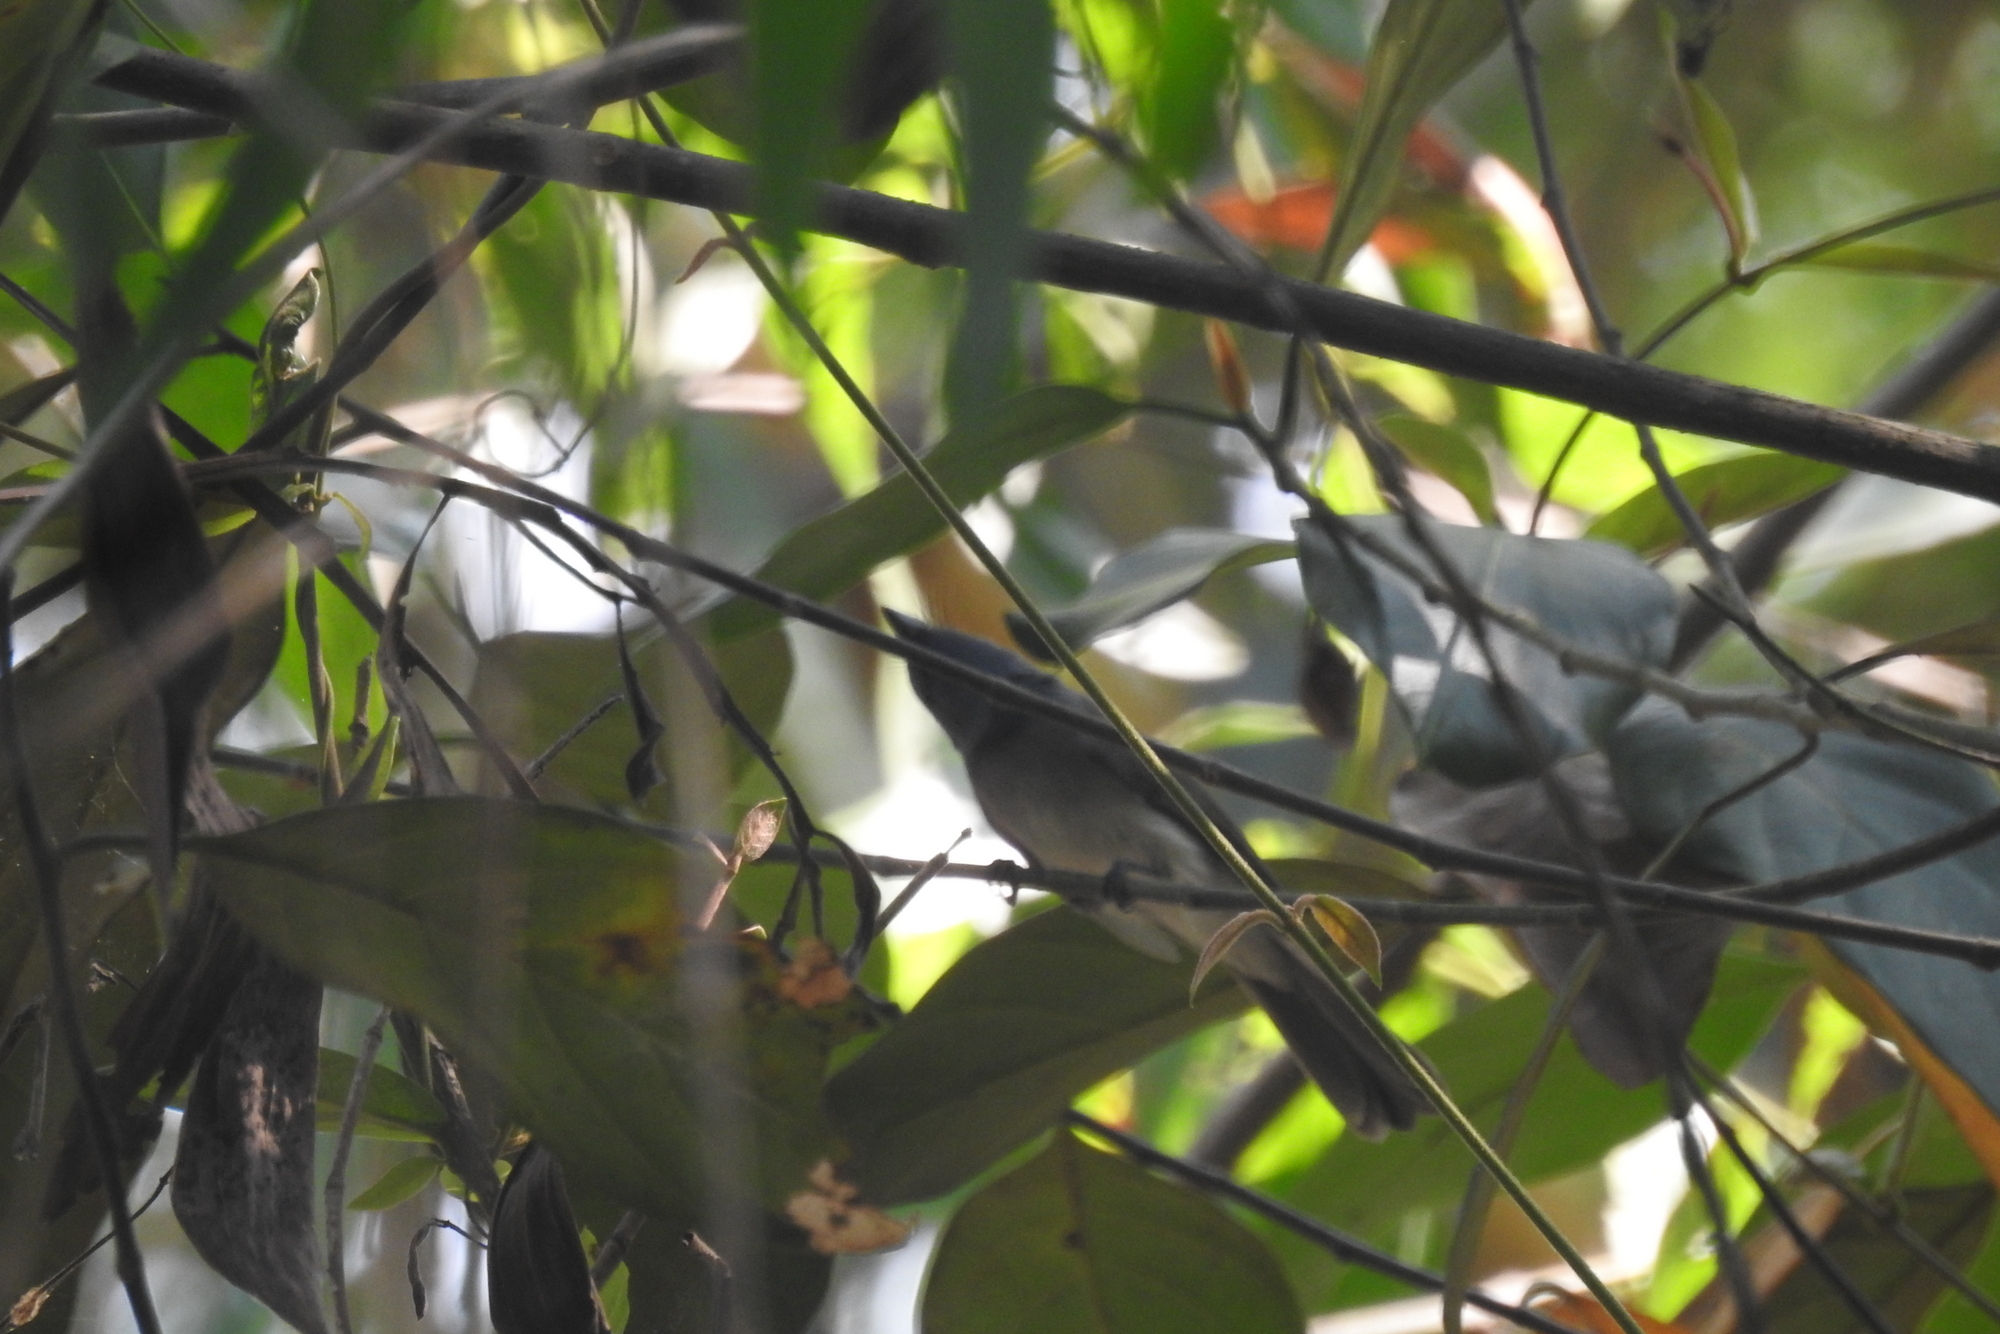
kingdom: Animalia
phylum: Chordata
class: Aves
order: Passeriformes
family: Monarchidae
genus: Hypothymis
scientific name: Hypothymis azurea
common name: Black-naped monarch
